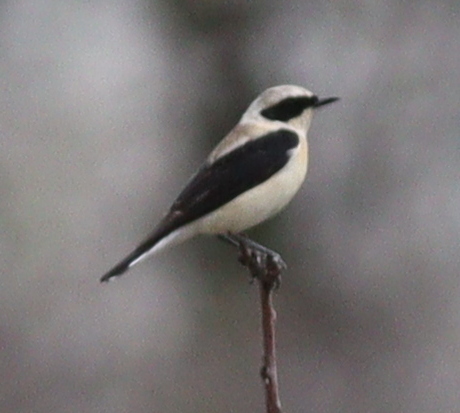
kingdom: Animalia
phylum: Chordata
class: Aves
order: Passeriformes
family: Muscicapidae
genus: Oenanthe
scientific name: Oenanthe hispanica
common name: Black-eared wheatear
